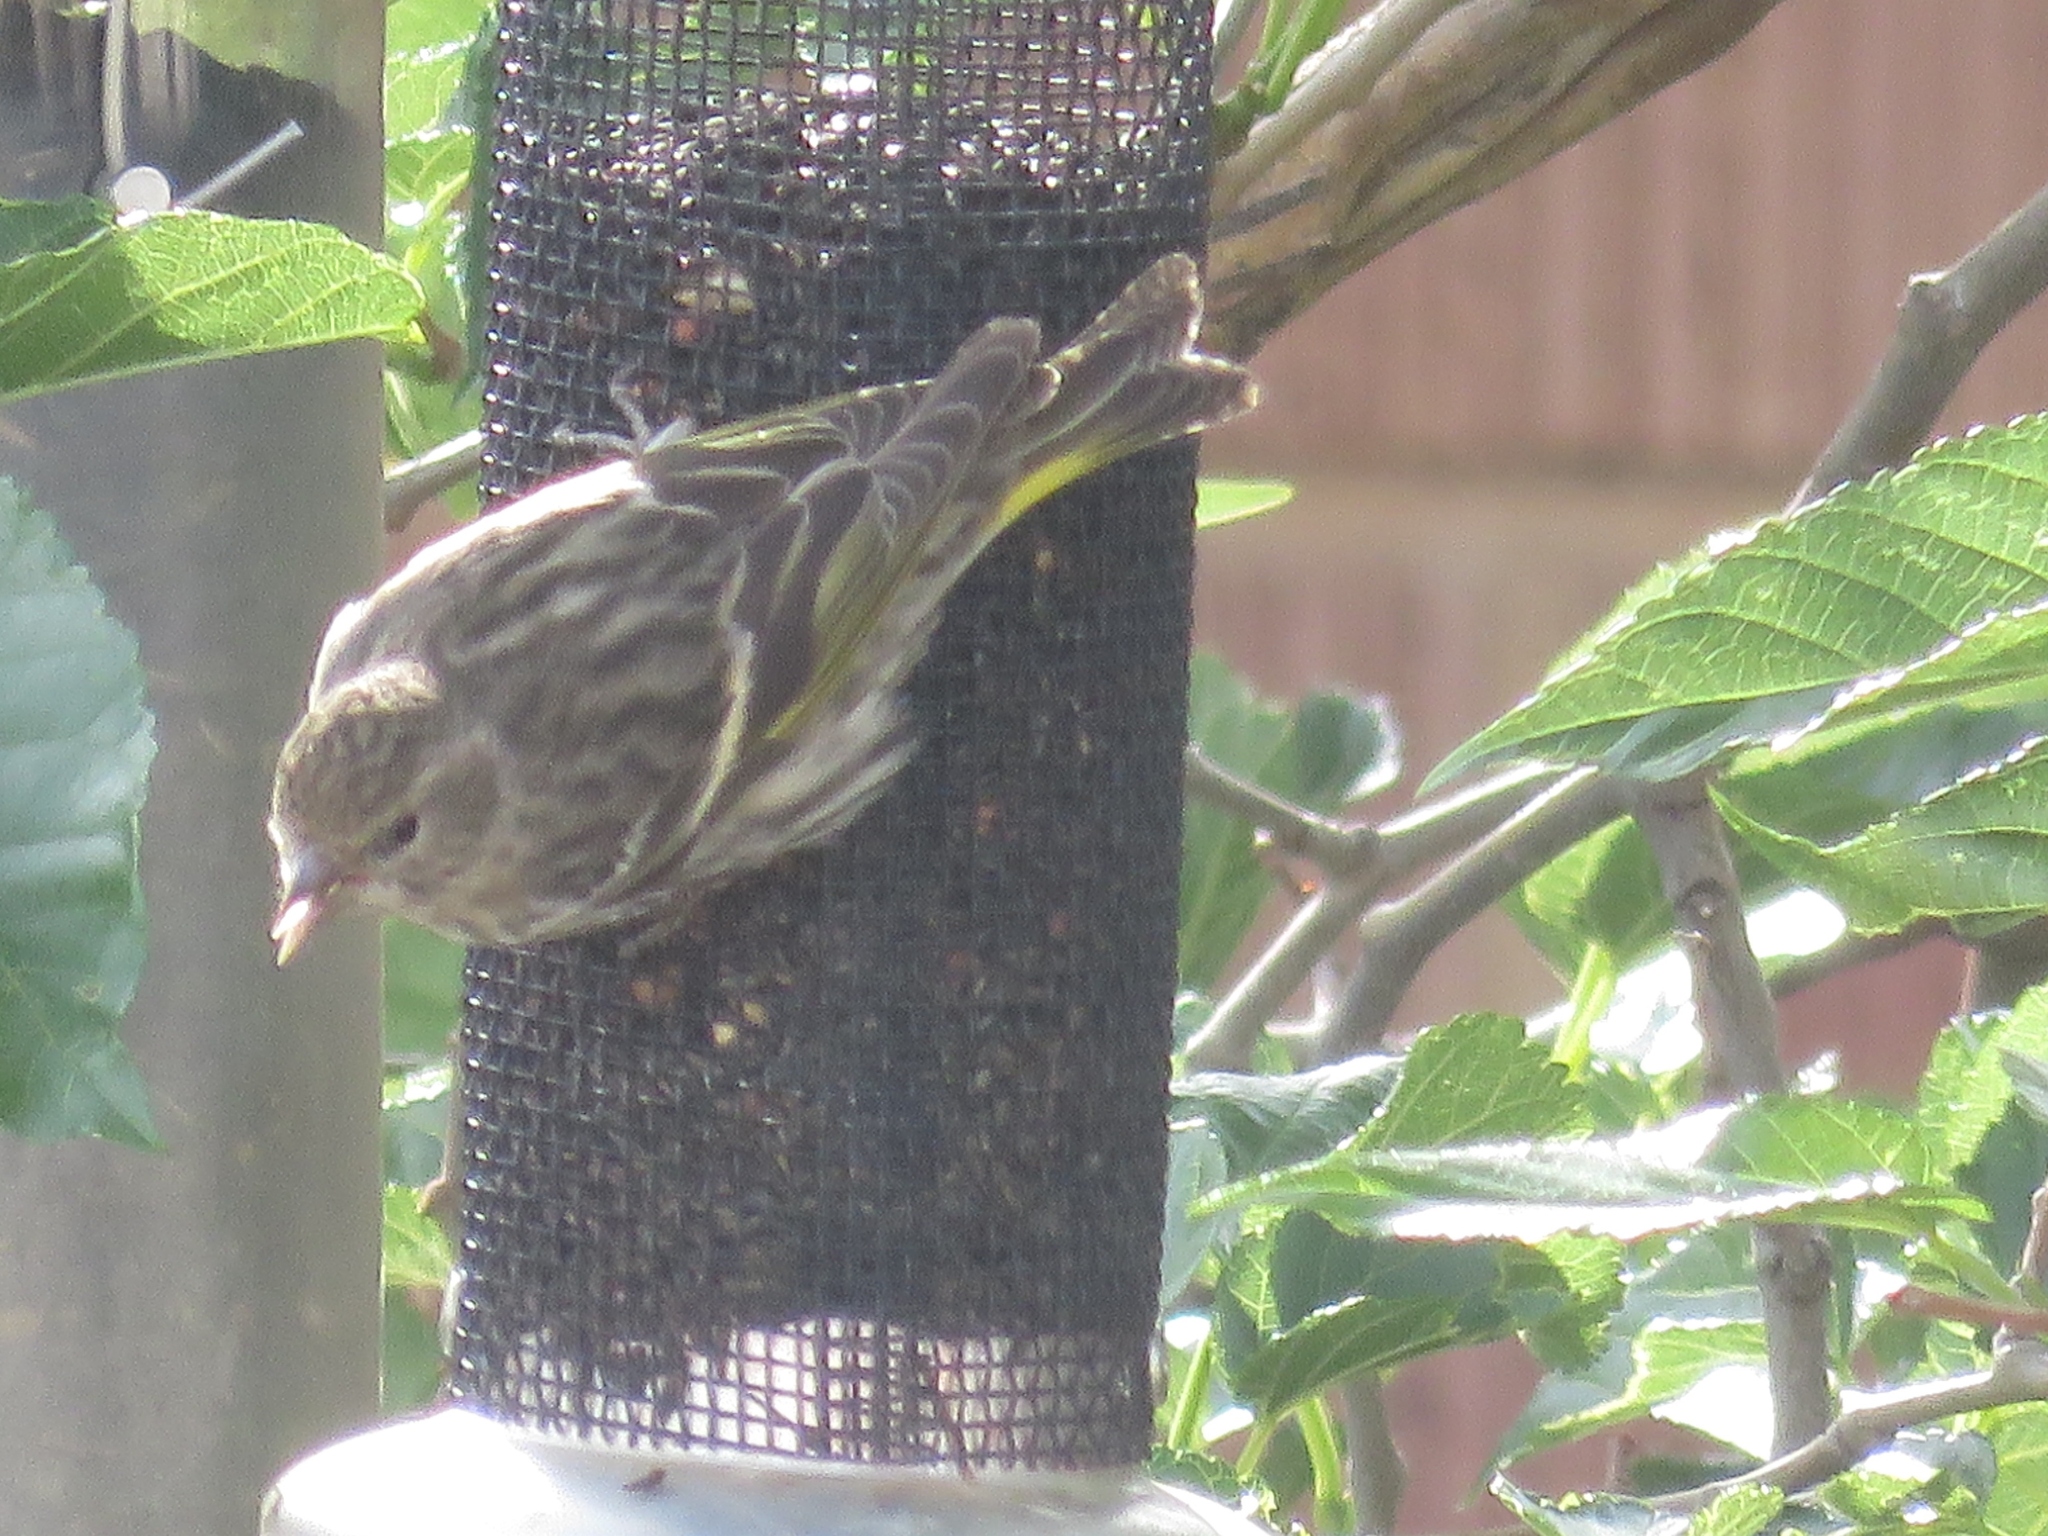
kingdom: Animalia
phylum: Chordata
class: Aves
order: Passeriformes
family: Fringillidae
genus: Spinus
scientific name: Spinus pinus
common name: Pine siskin
